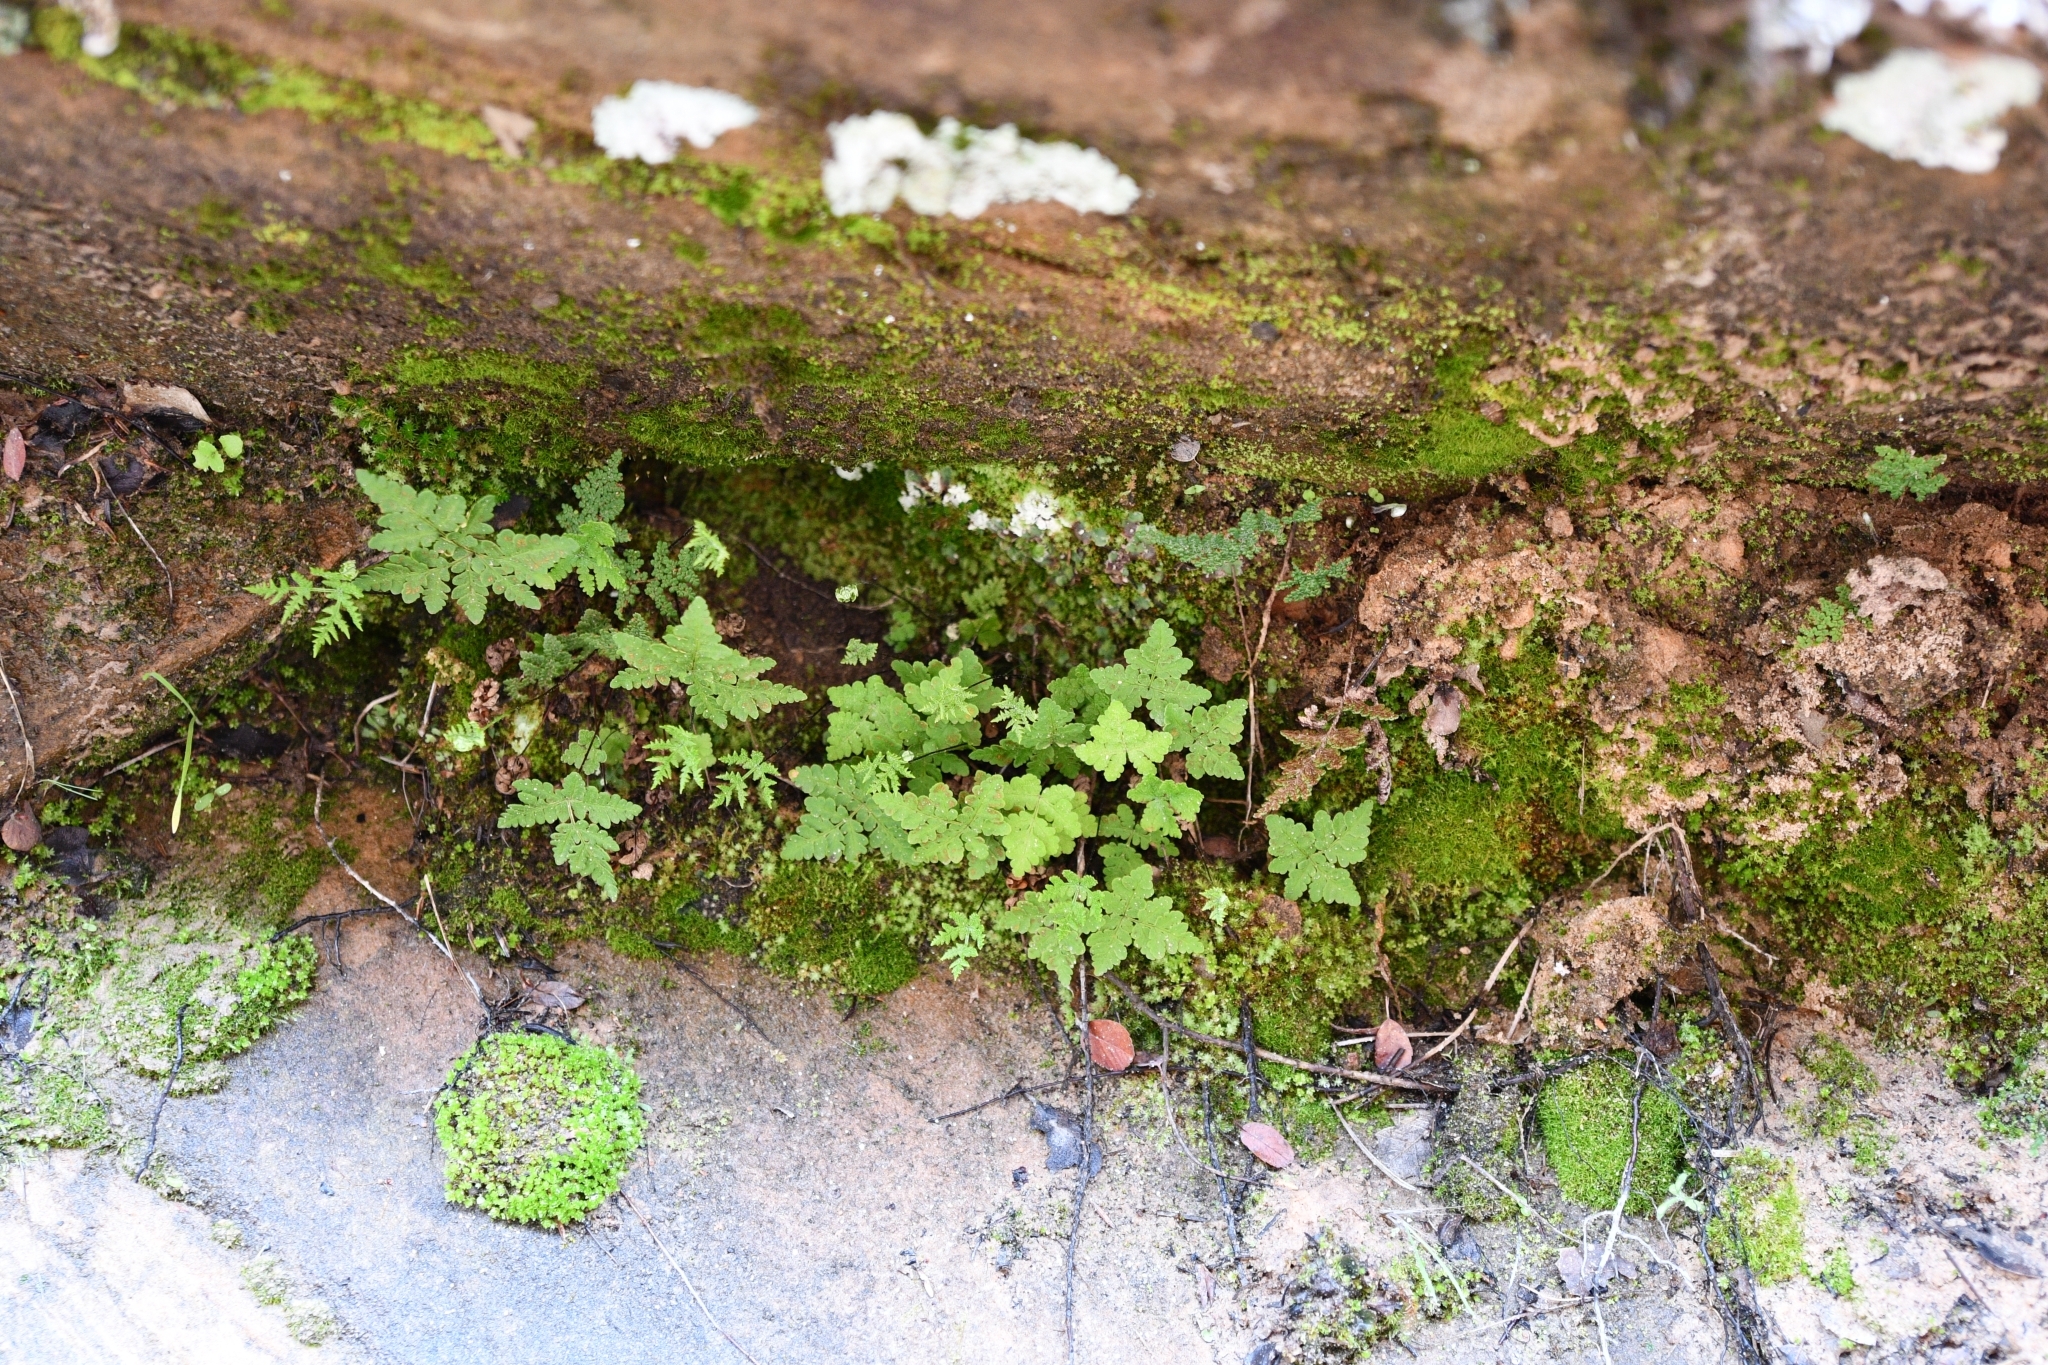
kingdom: Plantae
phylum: Tracheophyta
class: Polypodiopsida
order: Polypodiales
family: Pteridaceae
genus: Pentagramma
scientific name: Pentagramma triangularis
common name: Gold fern
